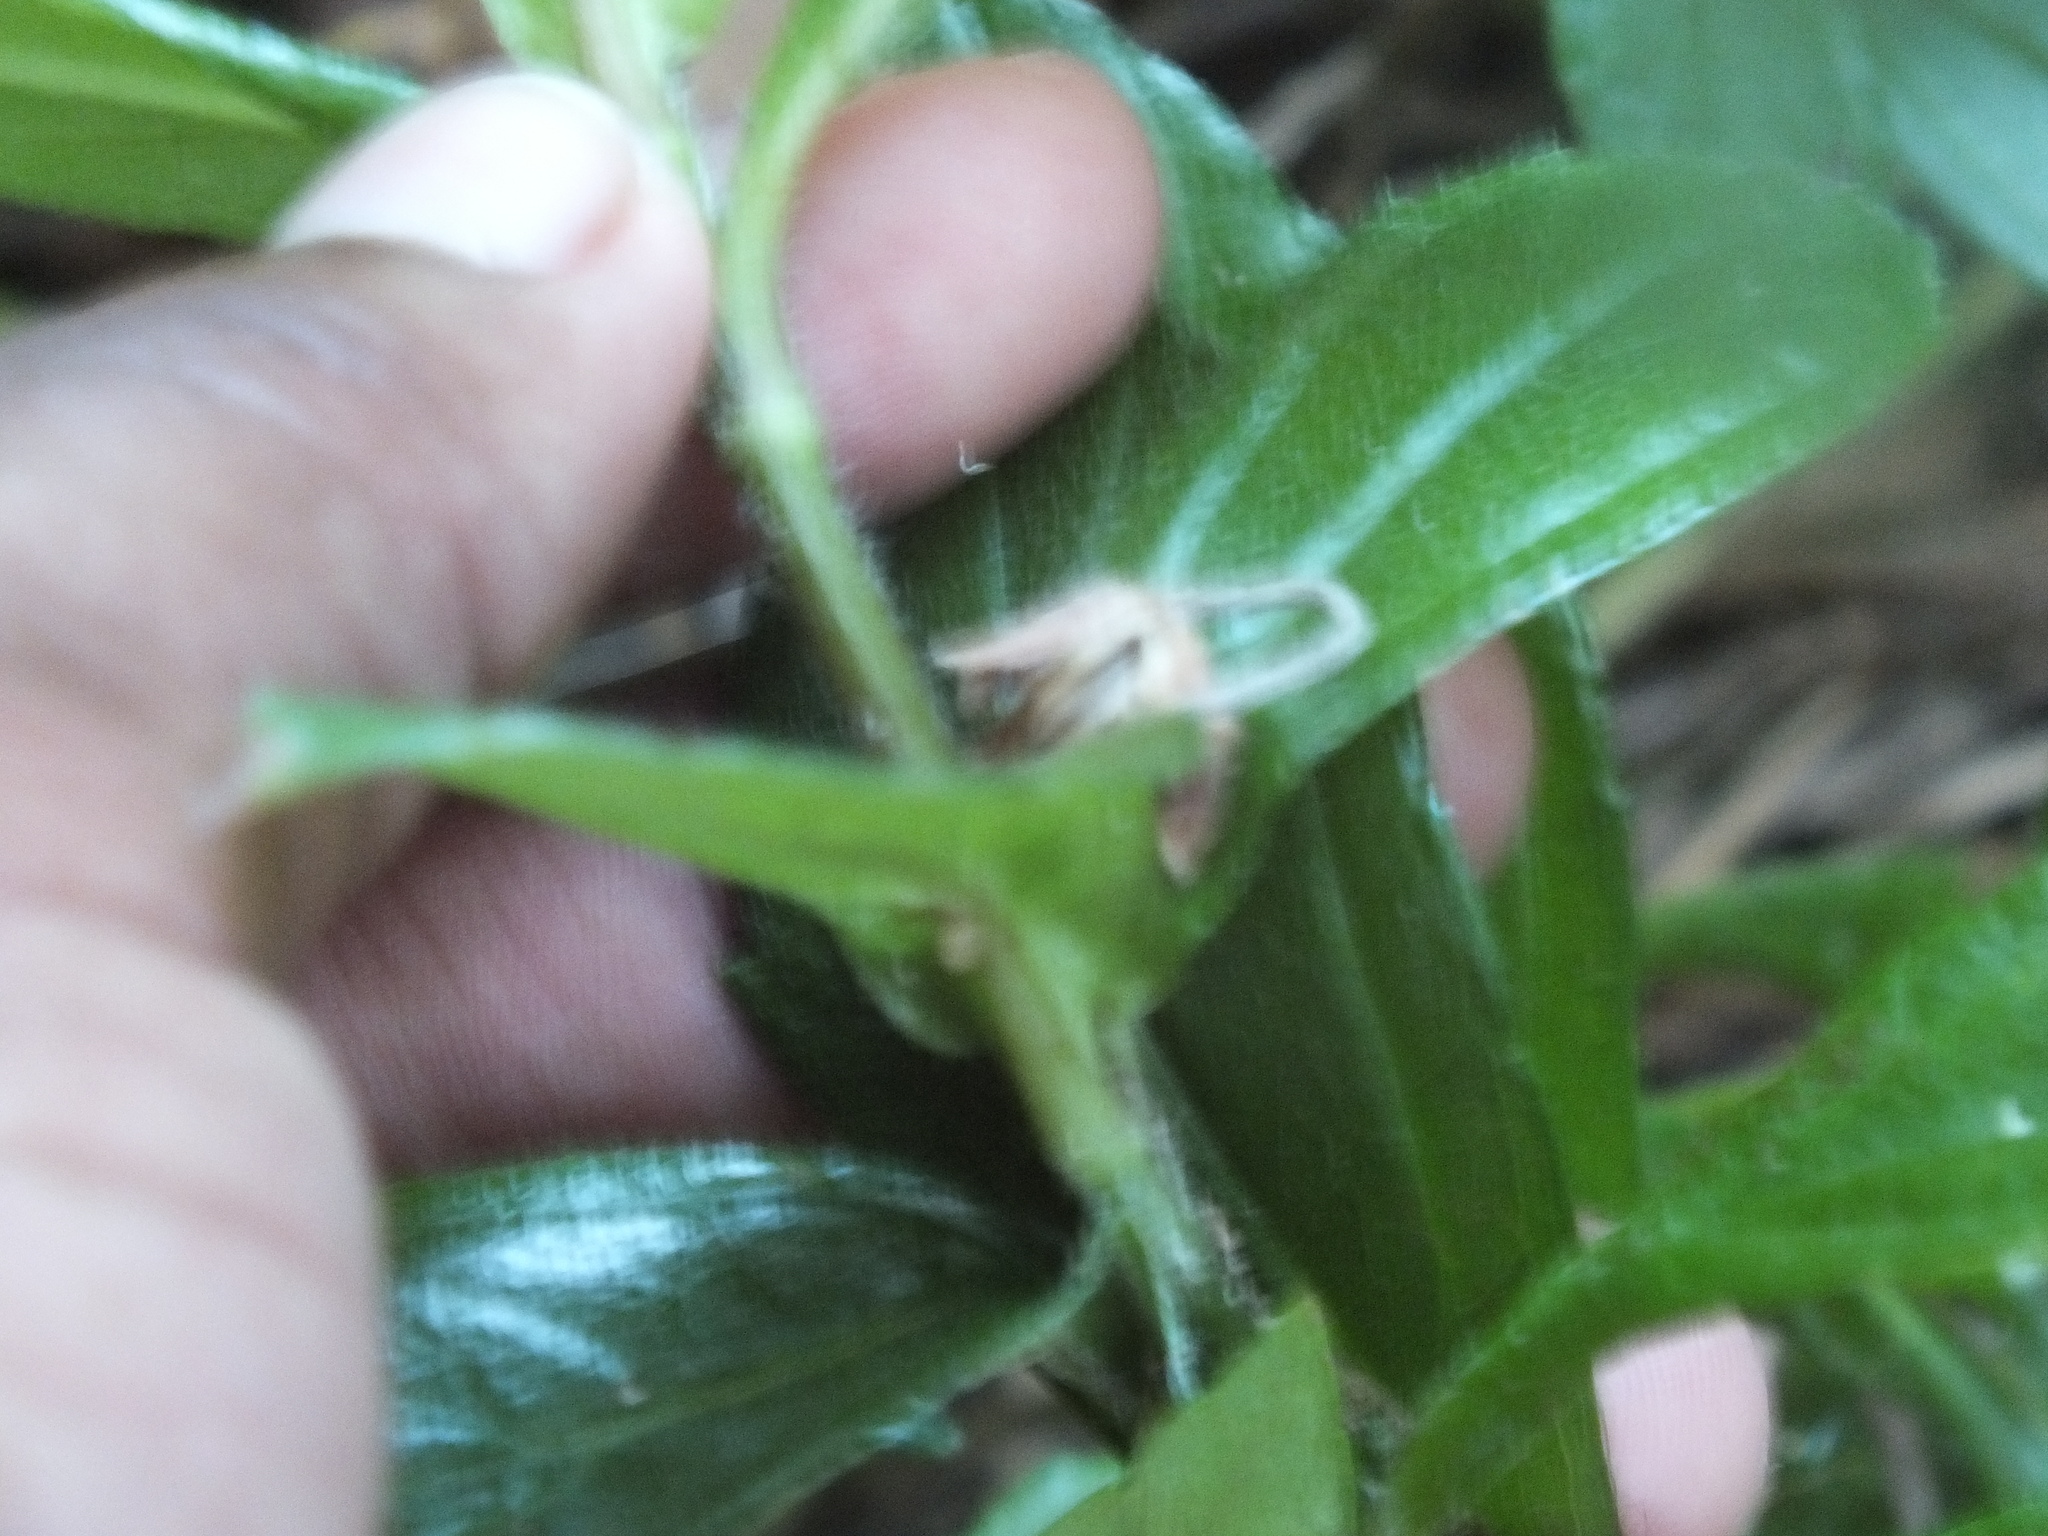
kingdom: Plantae
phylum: Tracheophyta
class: Magnoliopsida
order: Asterales
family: Asteraceae
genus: Sphagneticola
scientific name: Sphagneticola trilobata
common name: Bay biscayne creeping-oxeye
